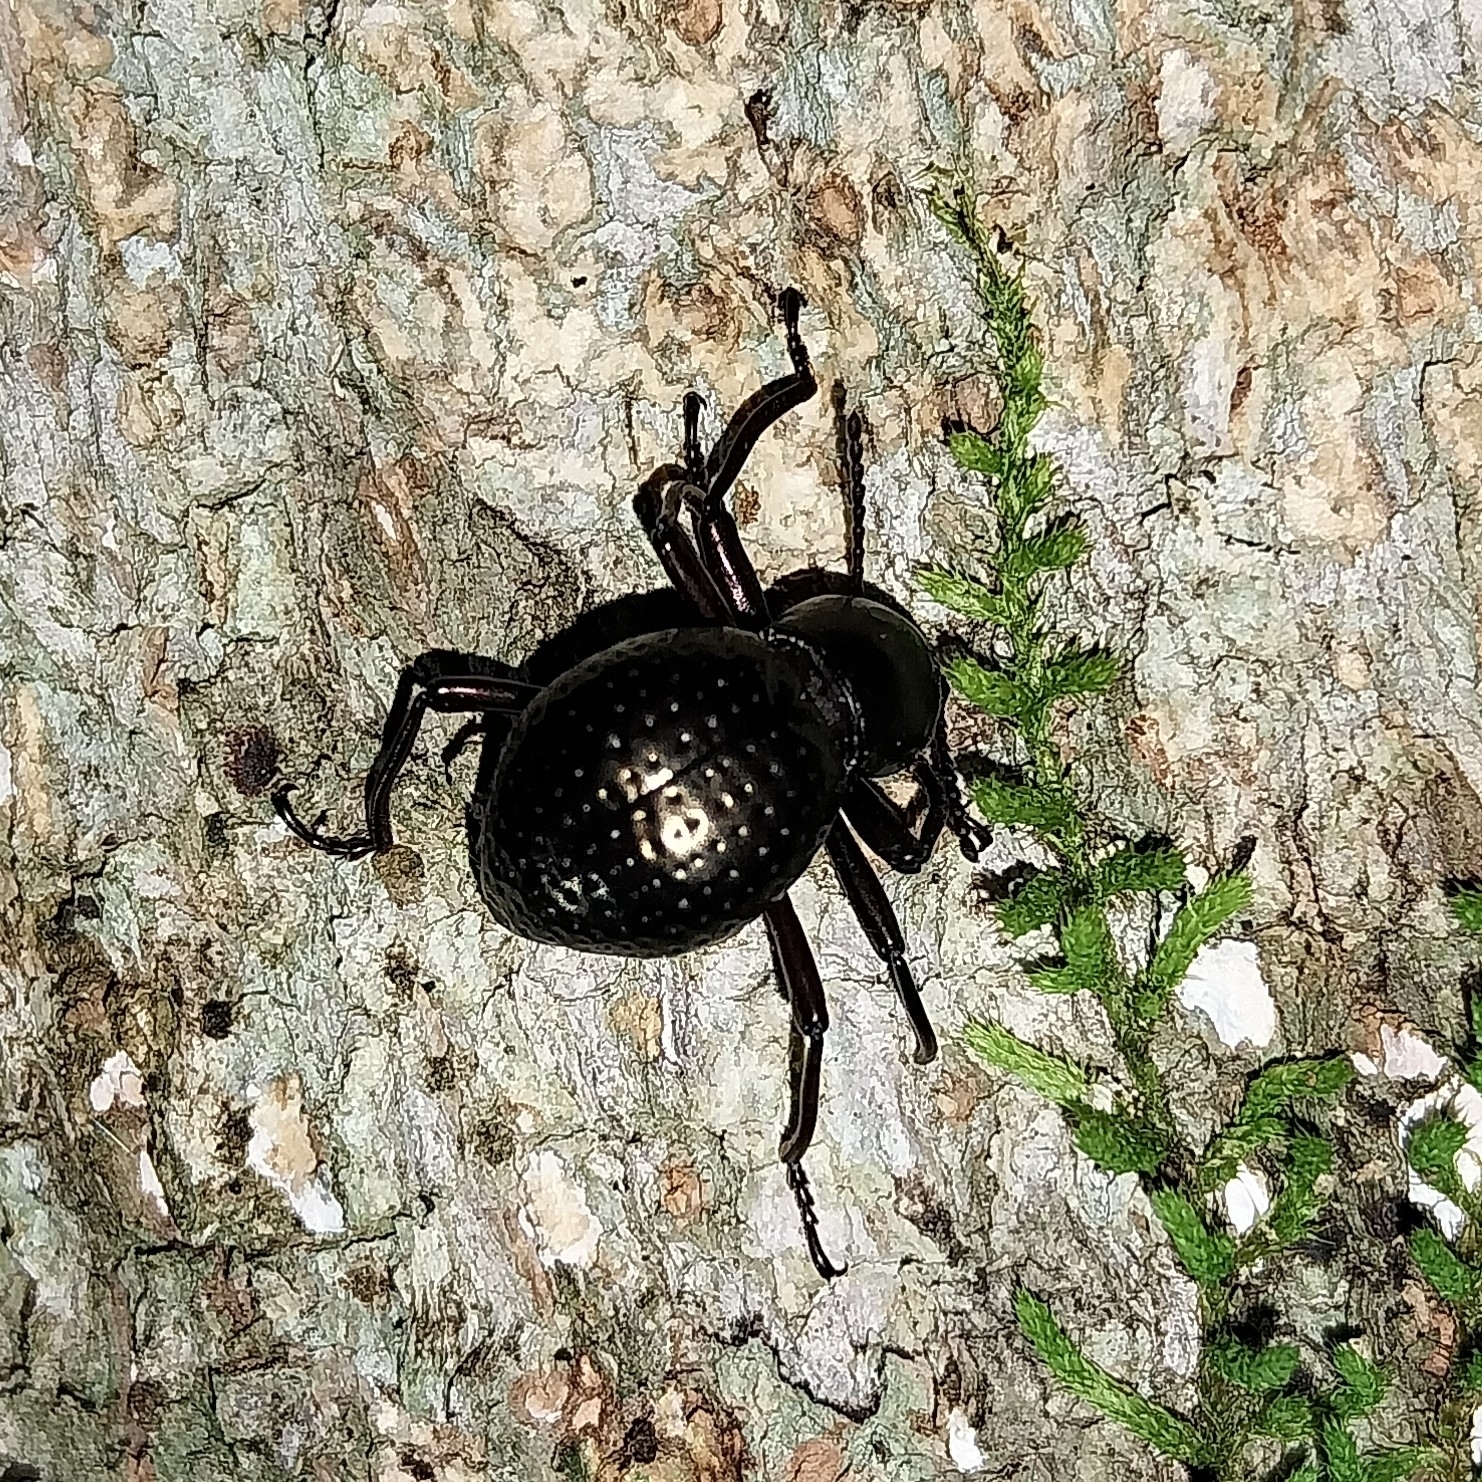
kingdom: Animalia
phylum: Arthropoda
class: Insecta
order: Coleoptera
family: Tenebrionidae
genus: Sphaerotus
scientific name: Sphaerotus
